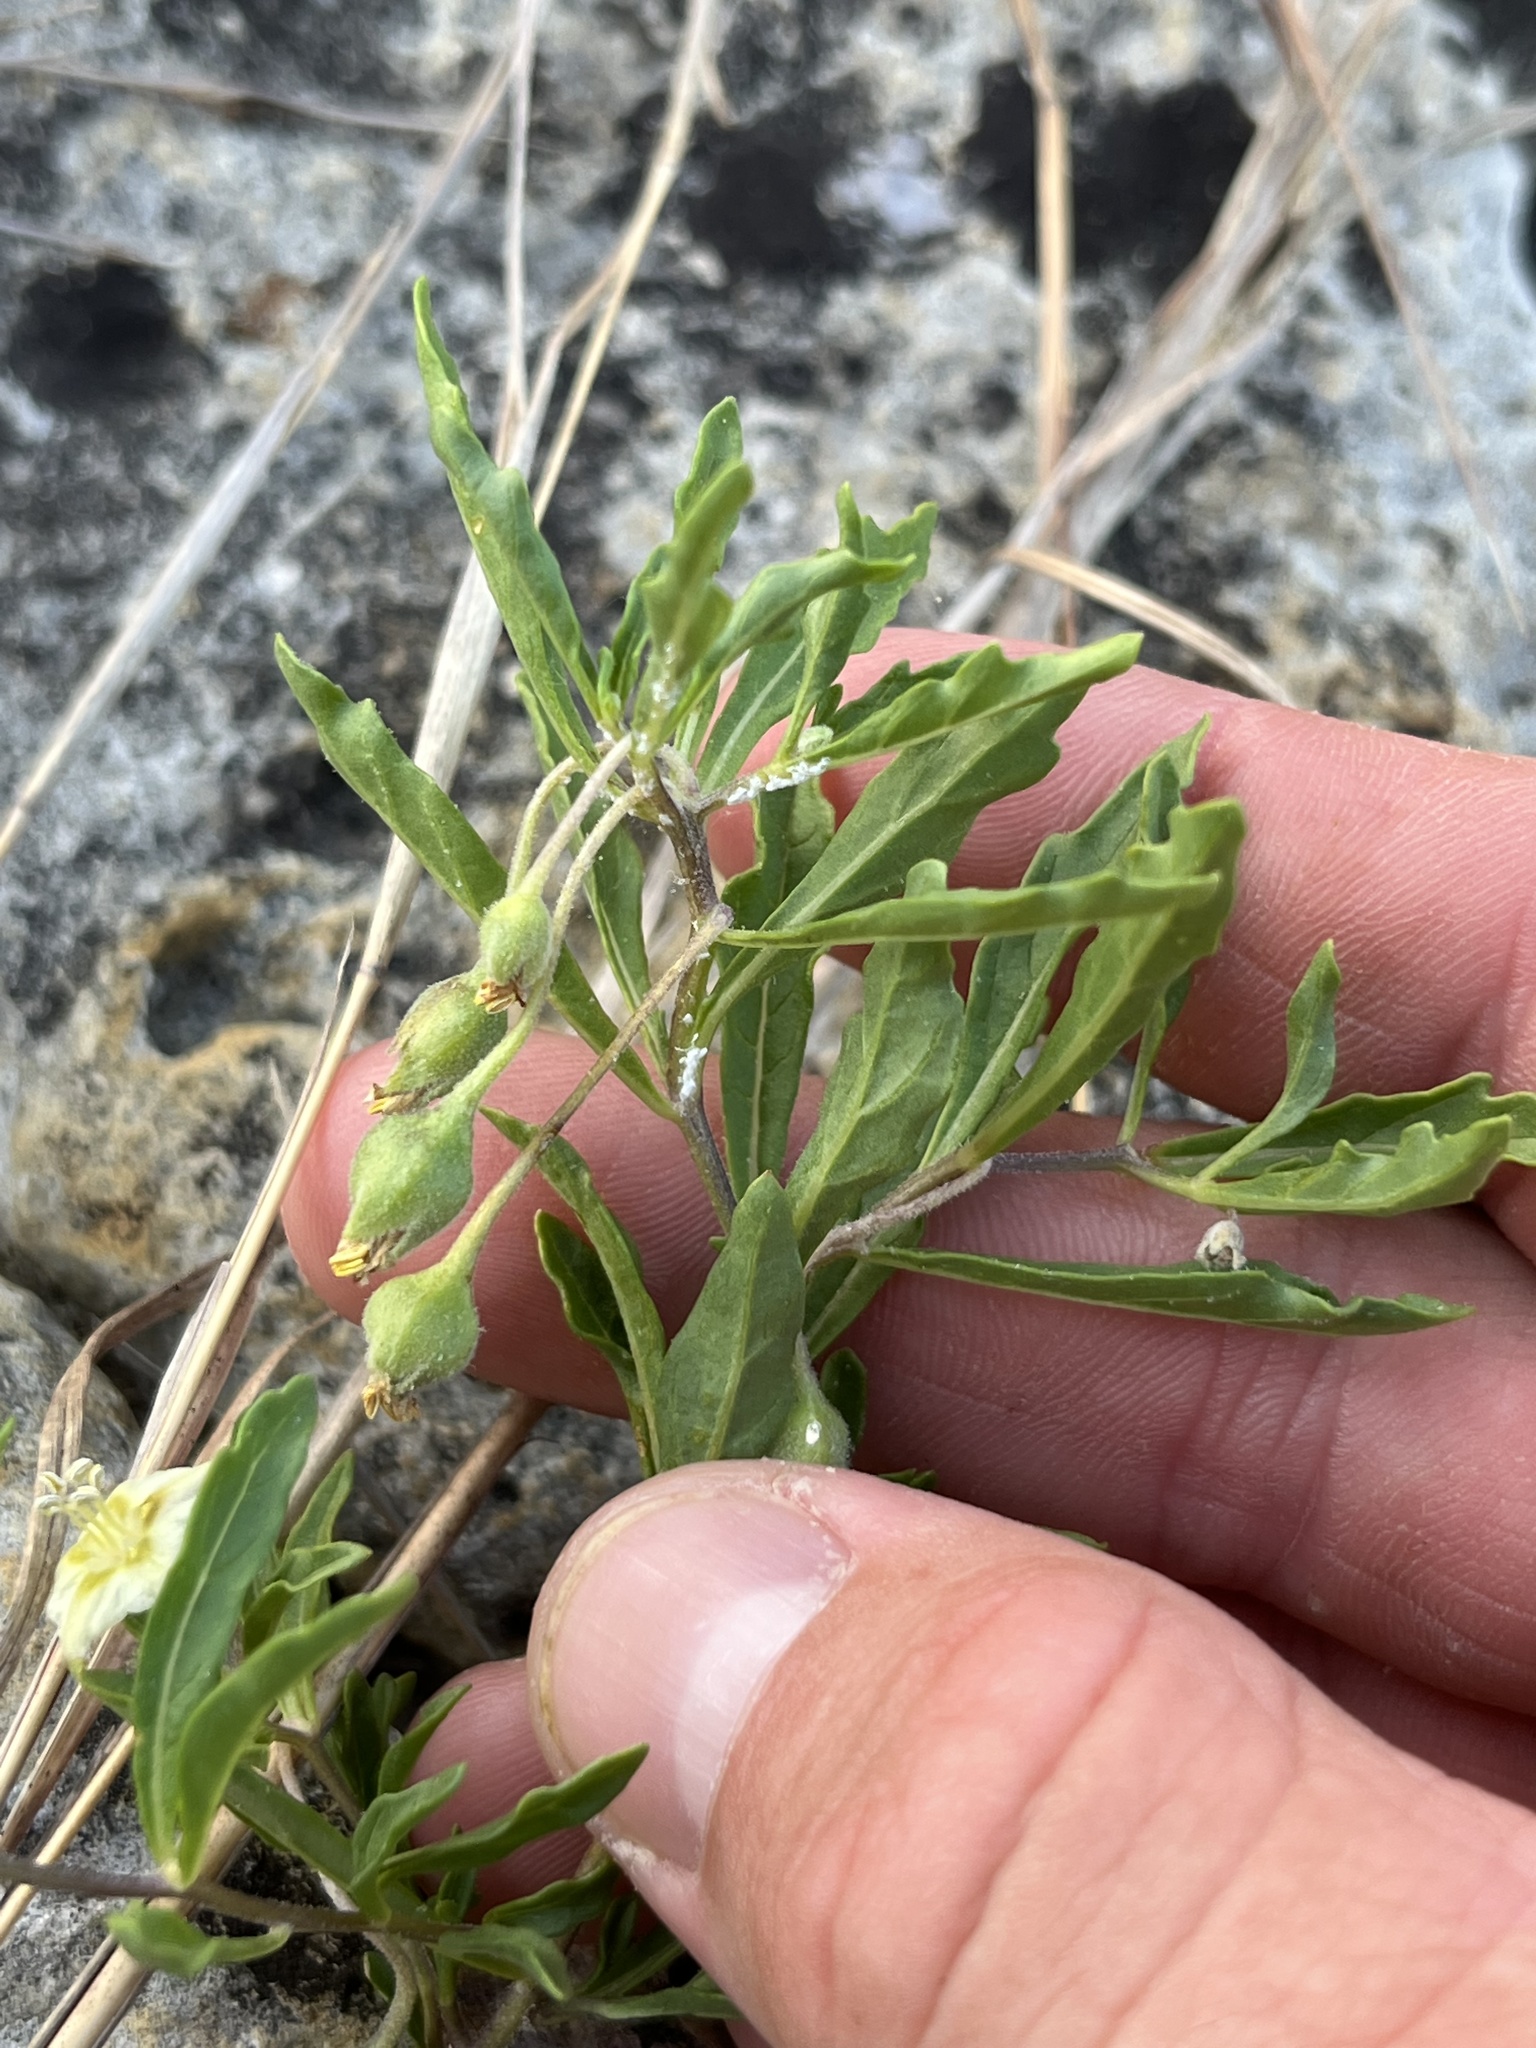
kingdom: Plantae
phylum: Tracheophyta
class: Magnoliopsida
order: Solanales
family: Solanaceae
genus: Chamaesaracha
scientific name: Chamaesaracha edwardsiana
